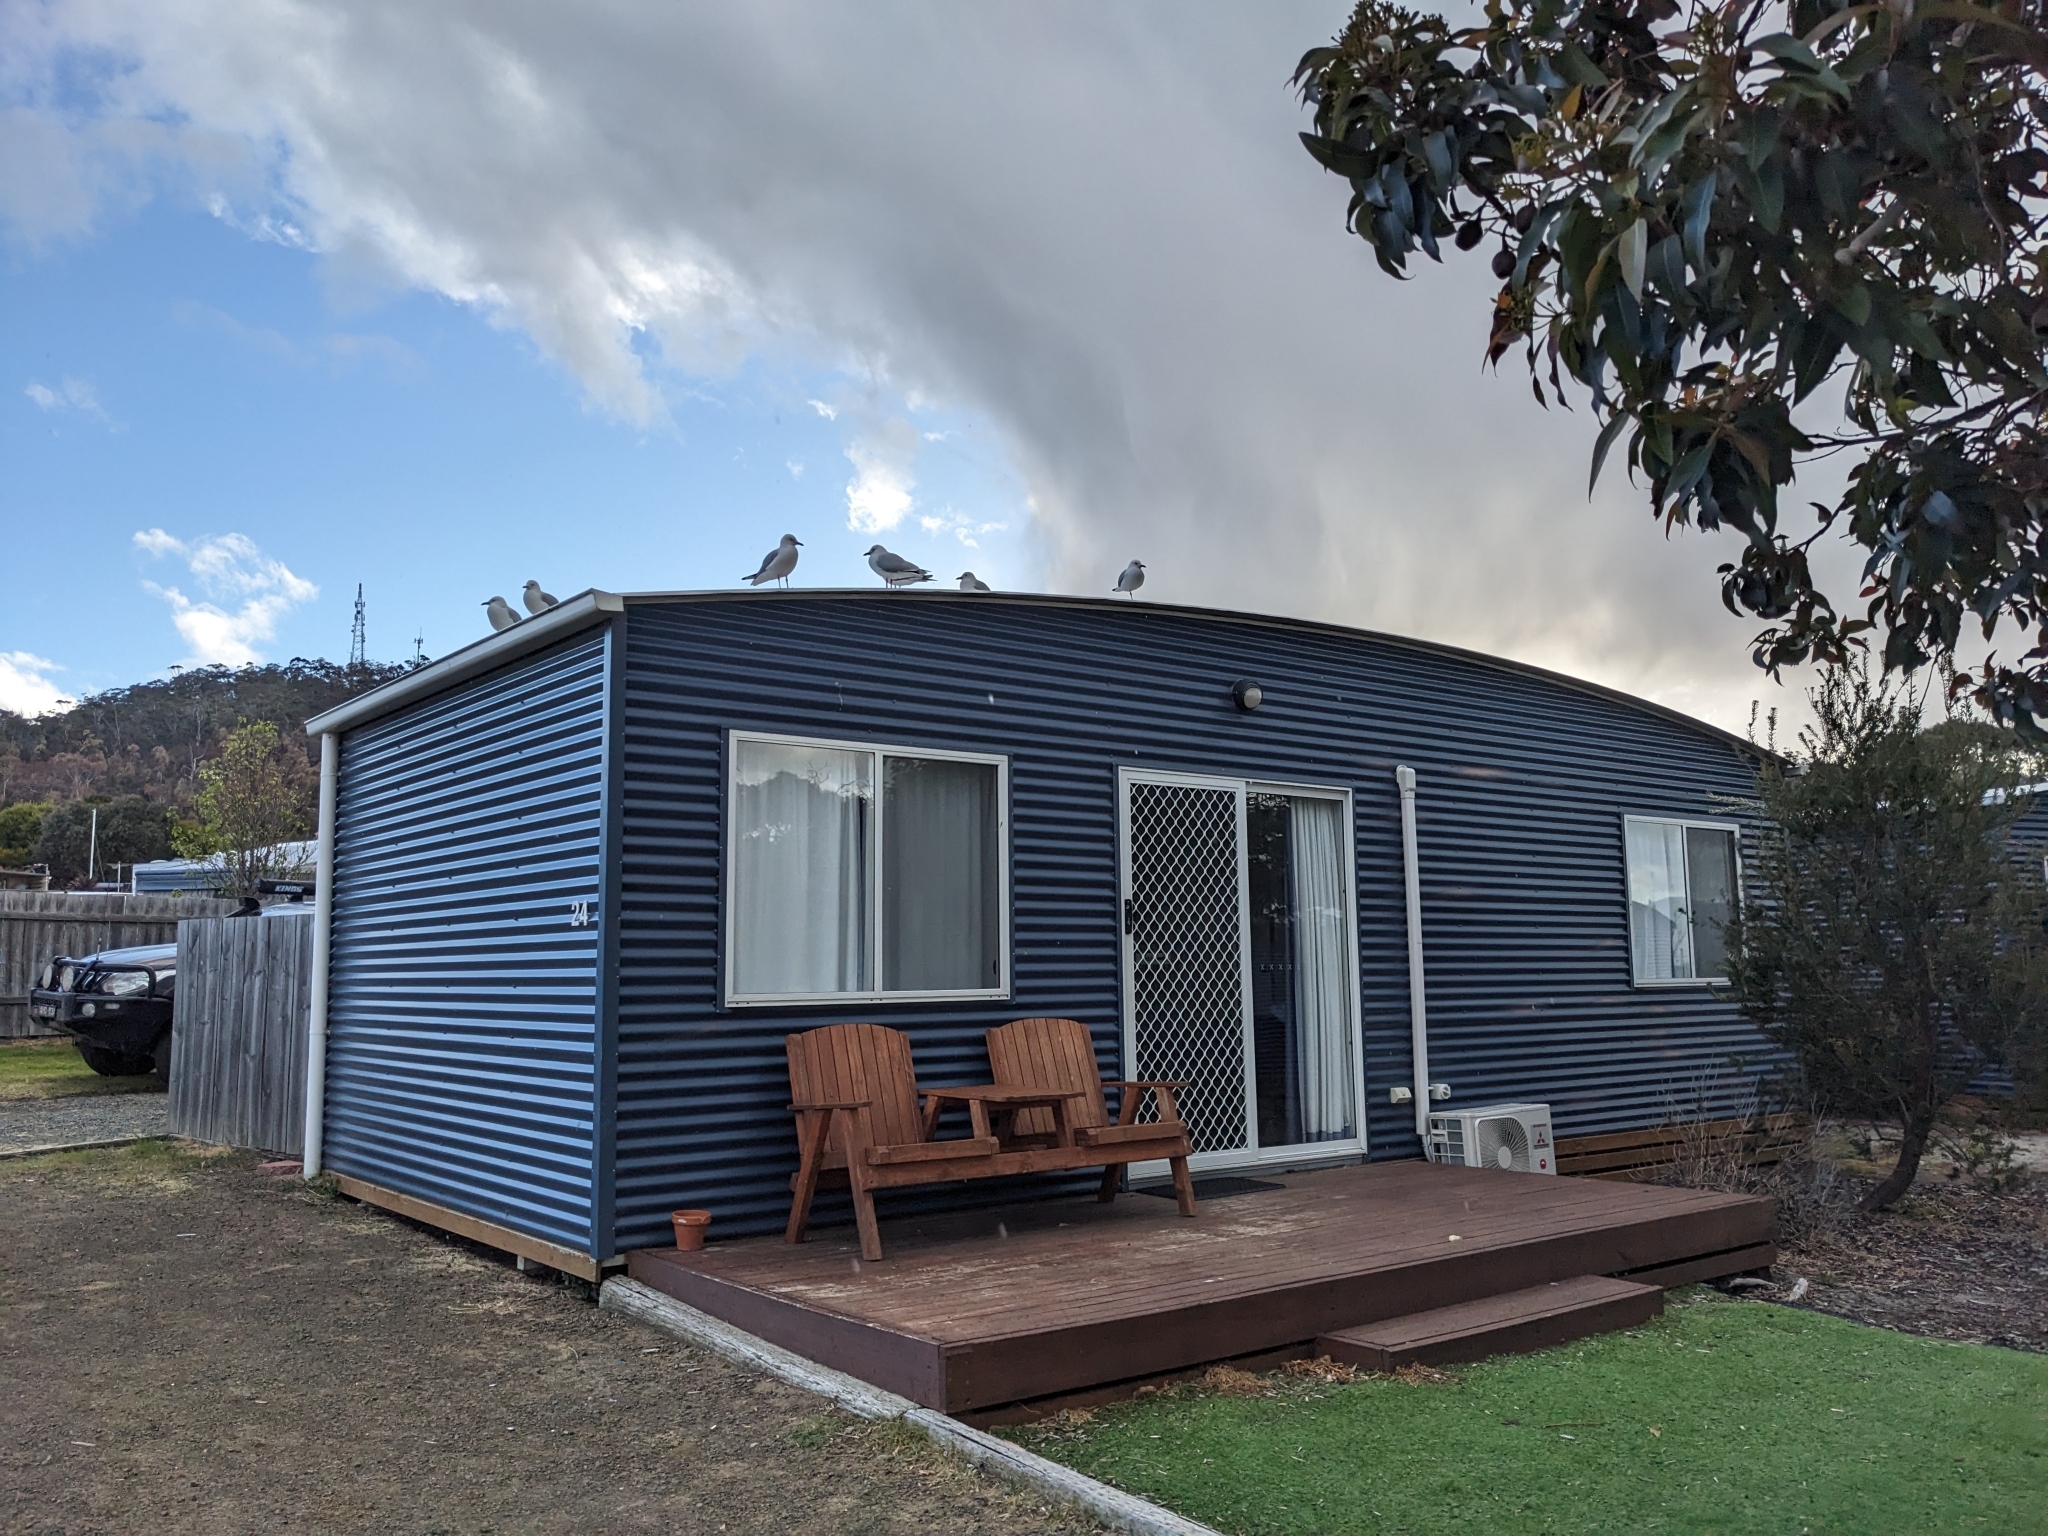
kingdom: Animalia
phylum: Chordata
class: Aves
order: Charadriiformes
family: Laridae
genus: Chroicocephalus
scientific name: Chroicocephalus novaehollandiae
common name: Silver gull
